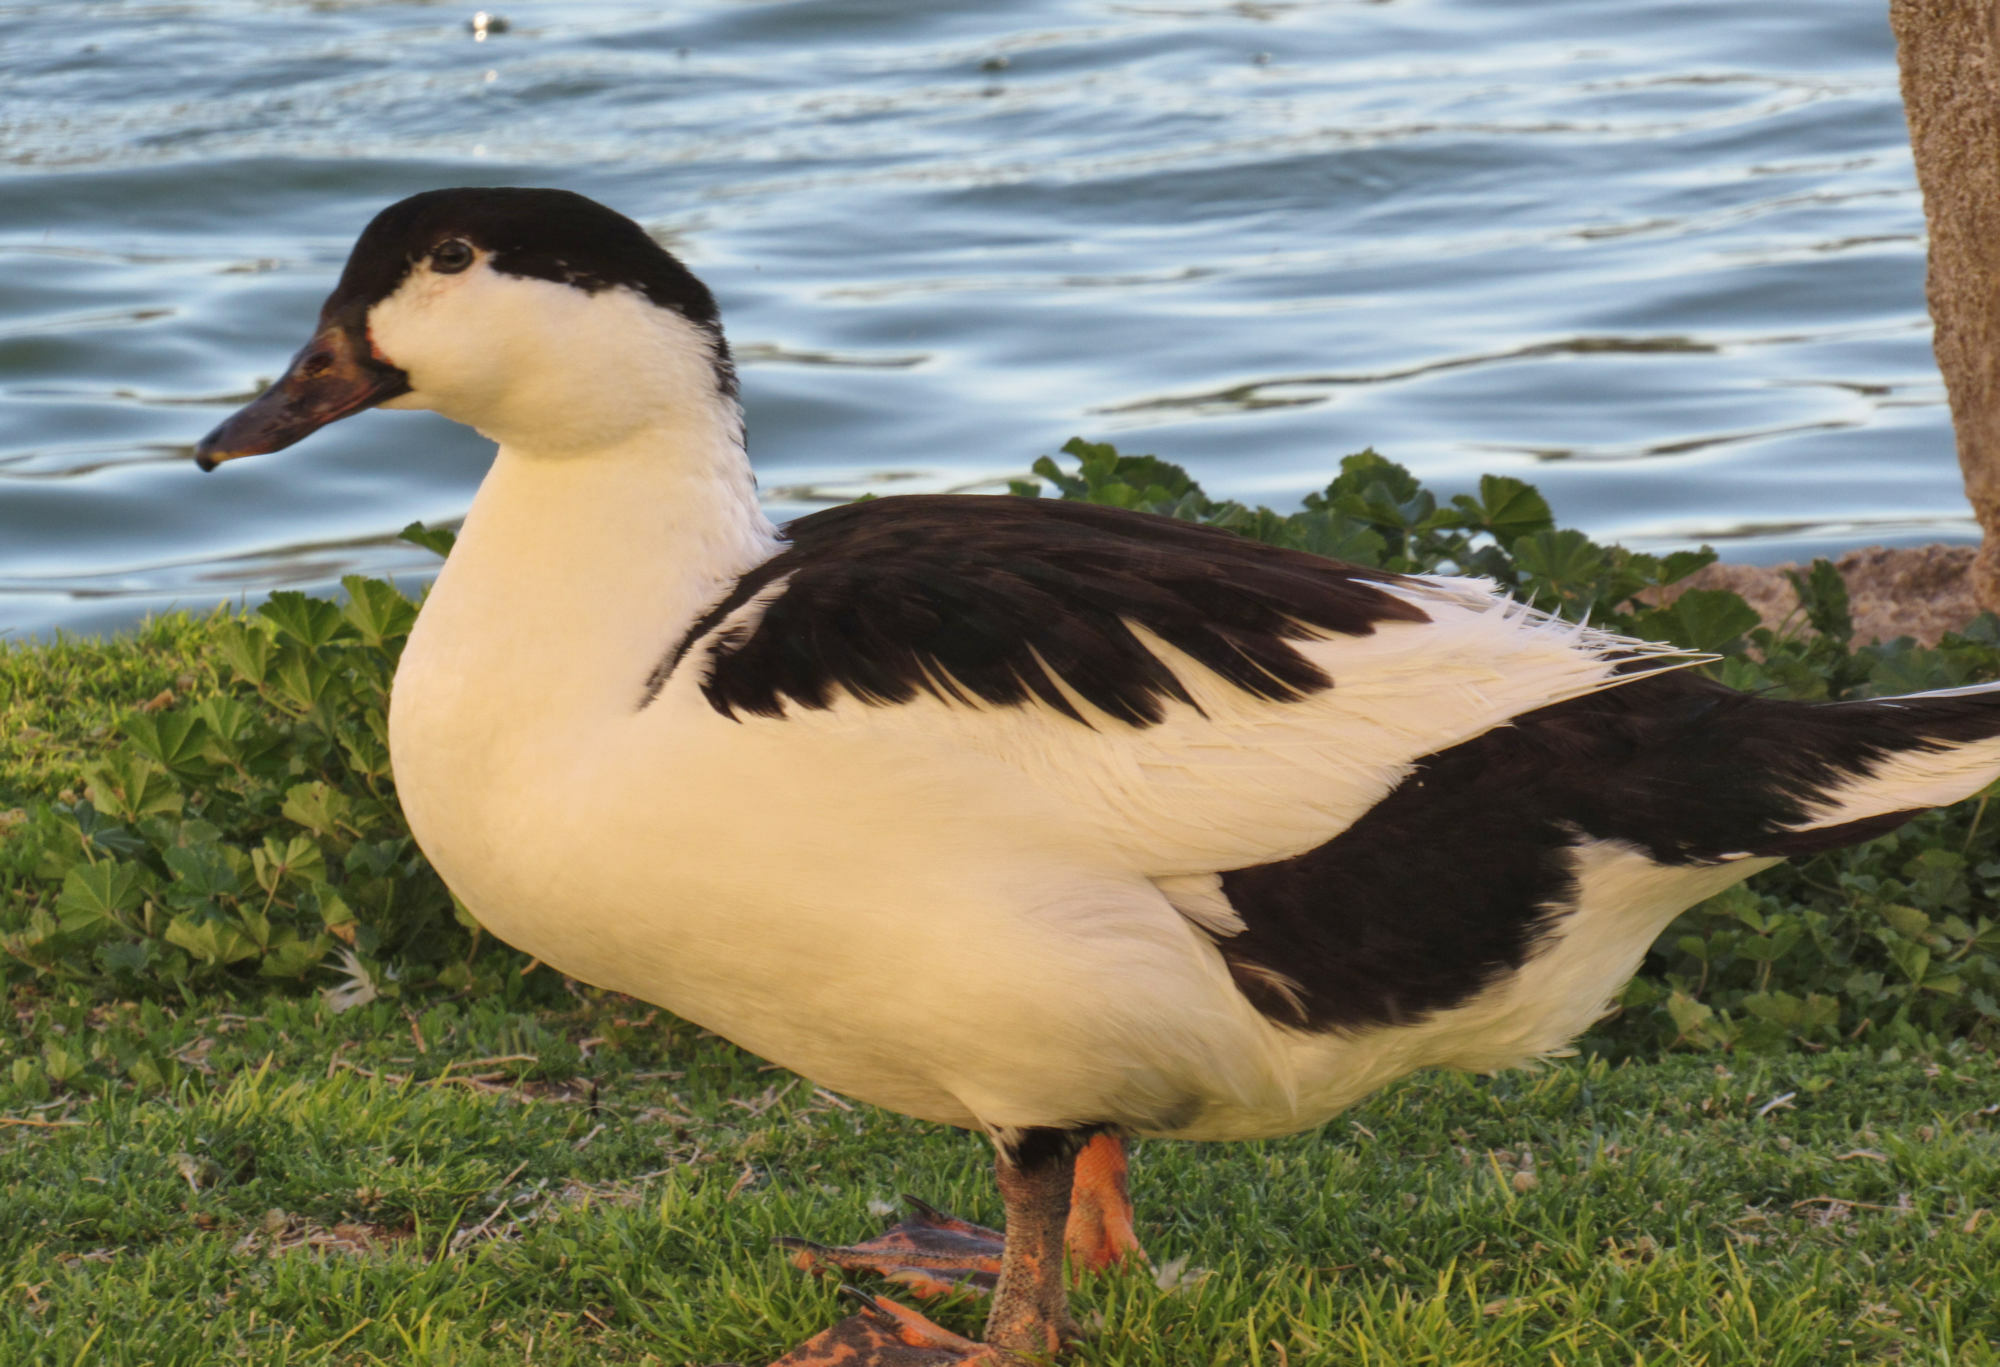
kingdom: Animalia
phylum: Chordata
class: Aves
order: Anseriformes
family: Anatidae
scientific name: Anatidae
